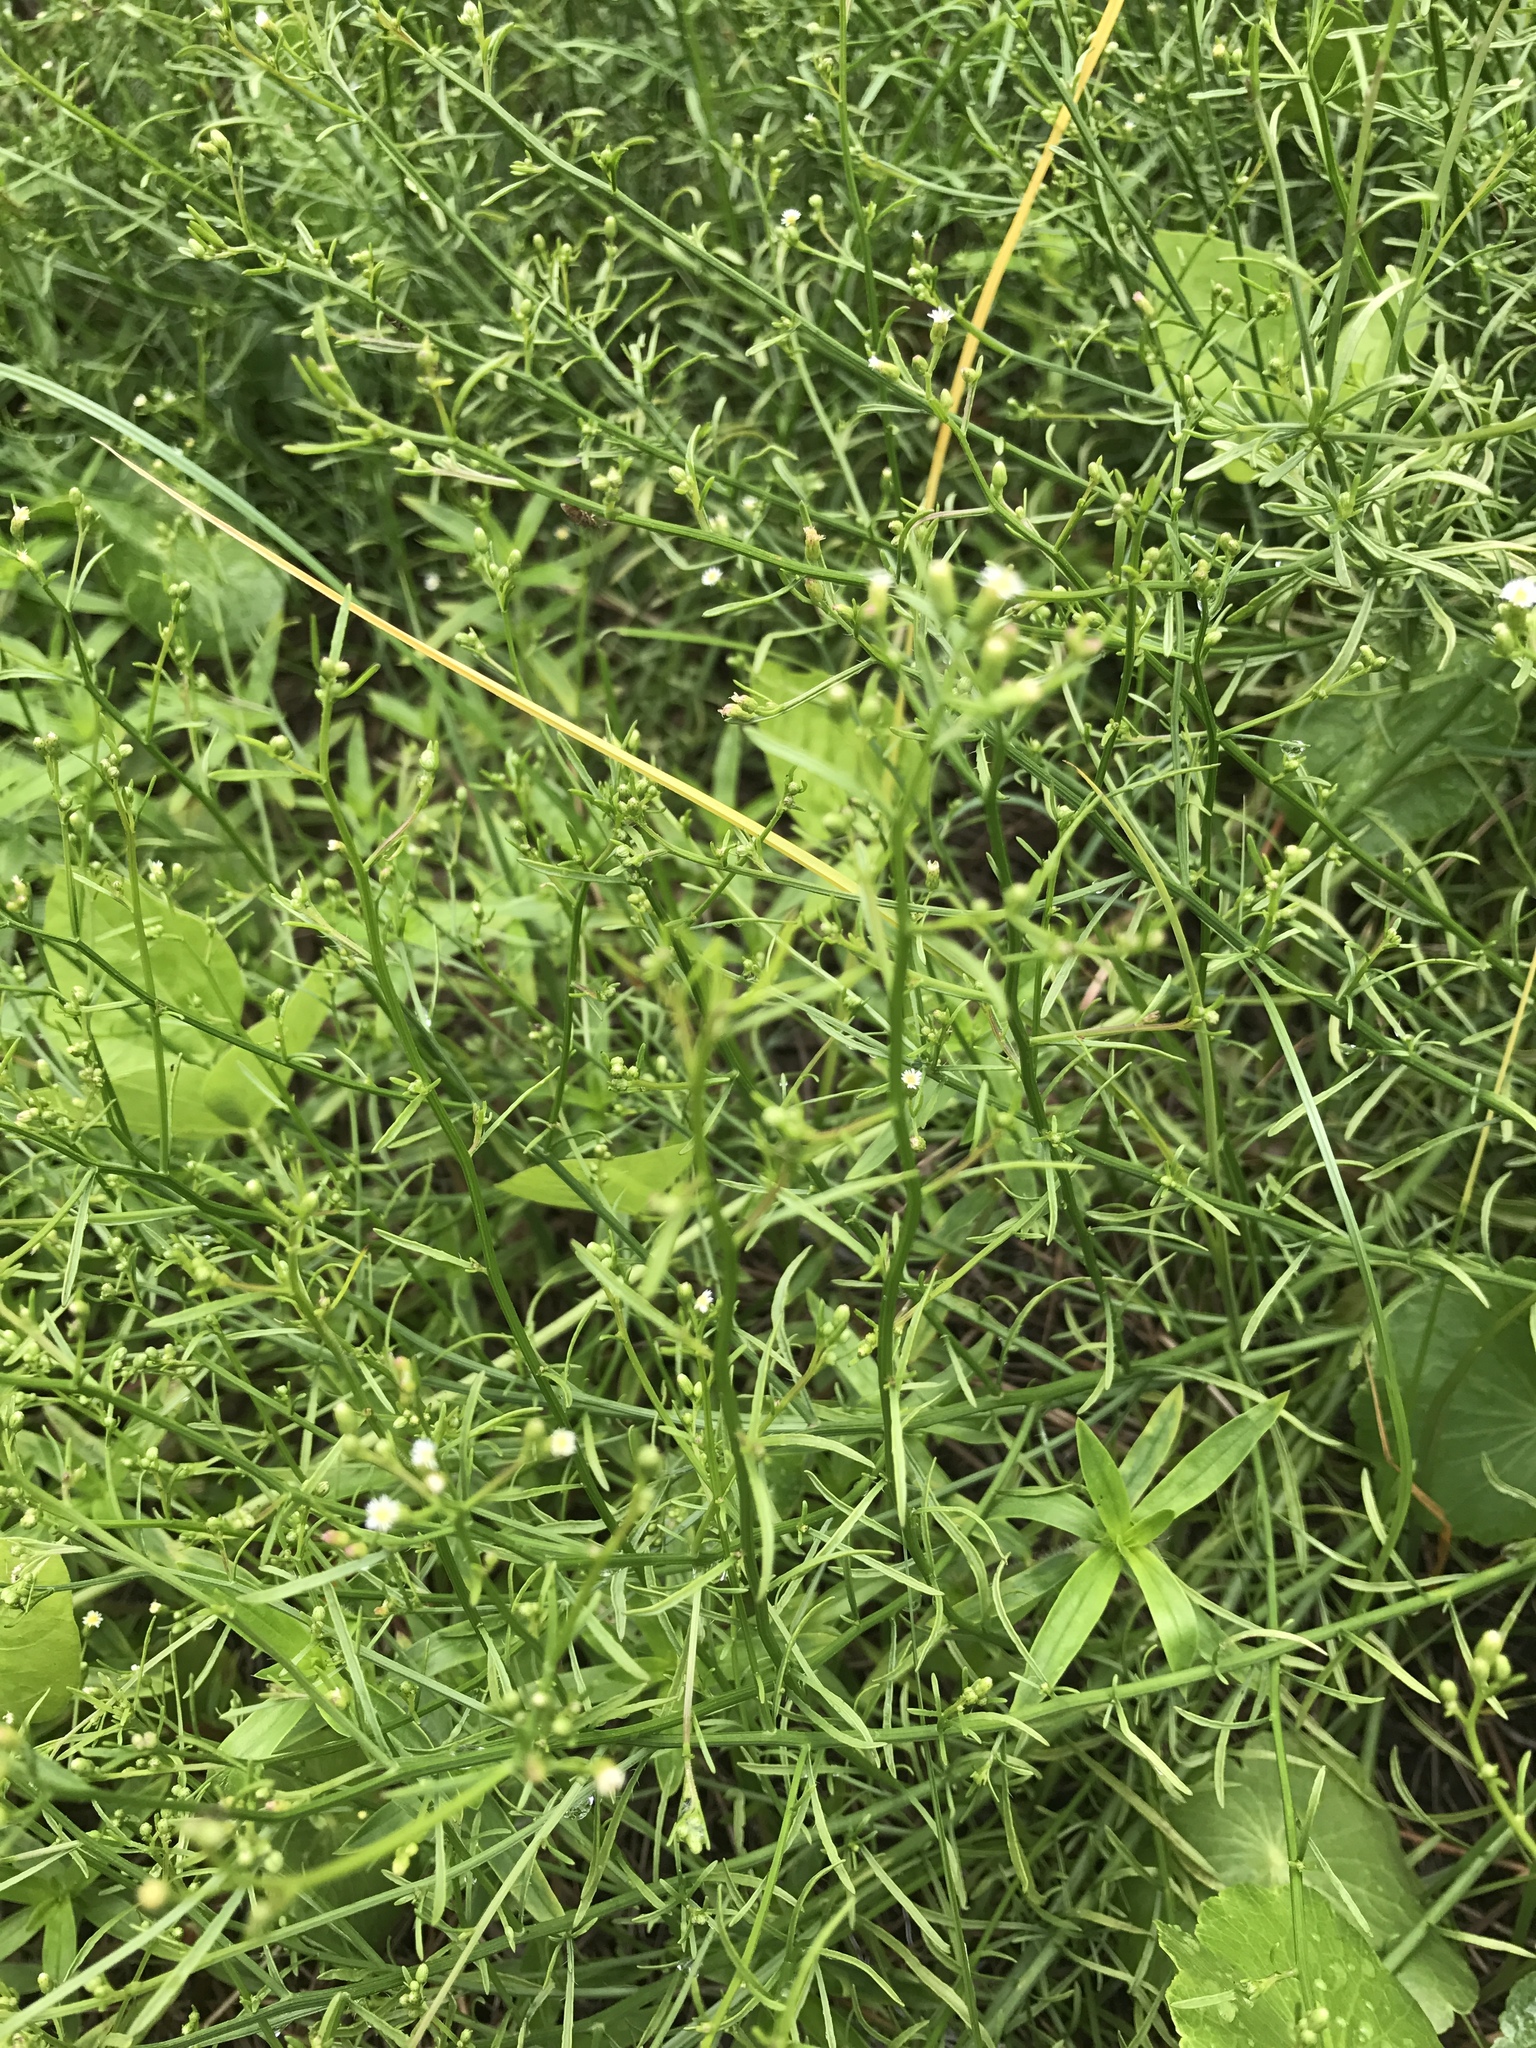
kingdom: Plantae
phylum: Tracheophyta
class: Magnoliopsida
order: Asterales
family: Asteraceae
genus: Erigeron
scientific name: Erigeron canadensis
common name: Canadian fleabane
